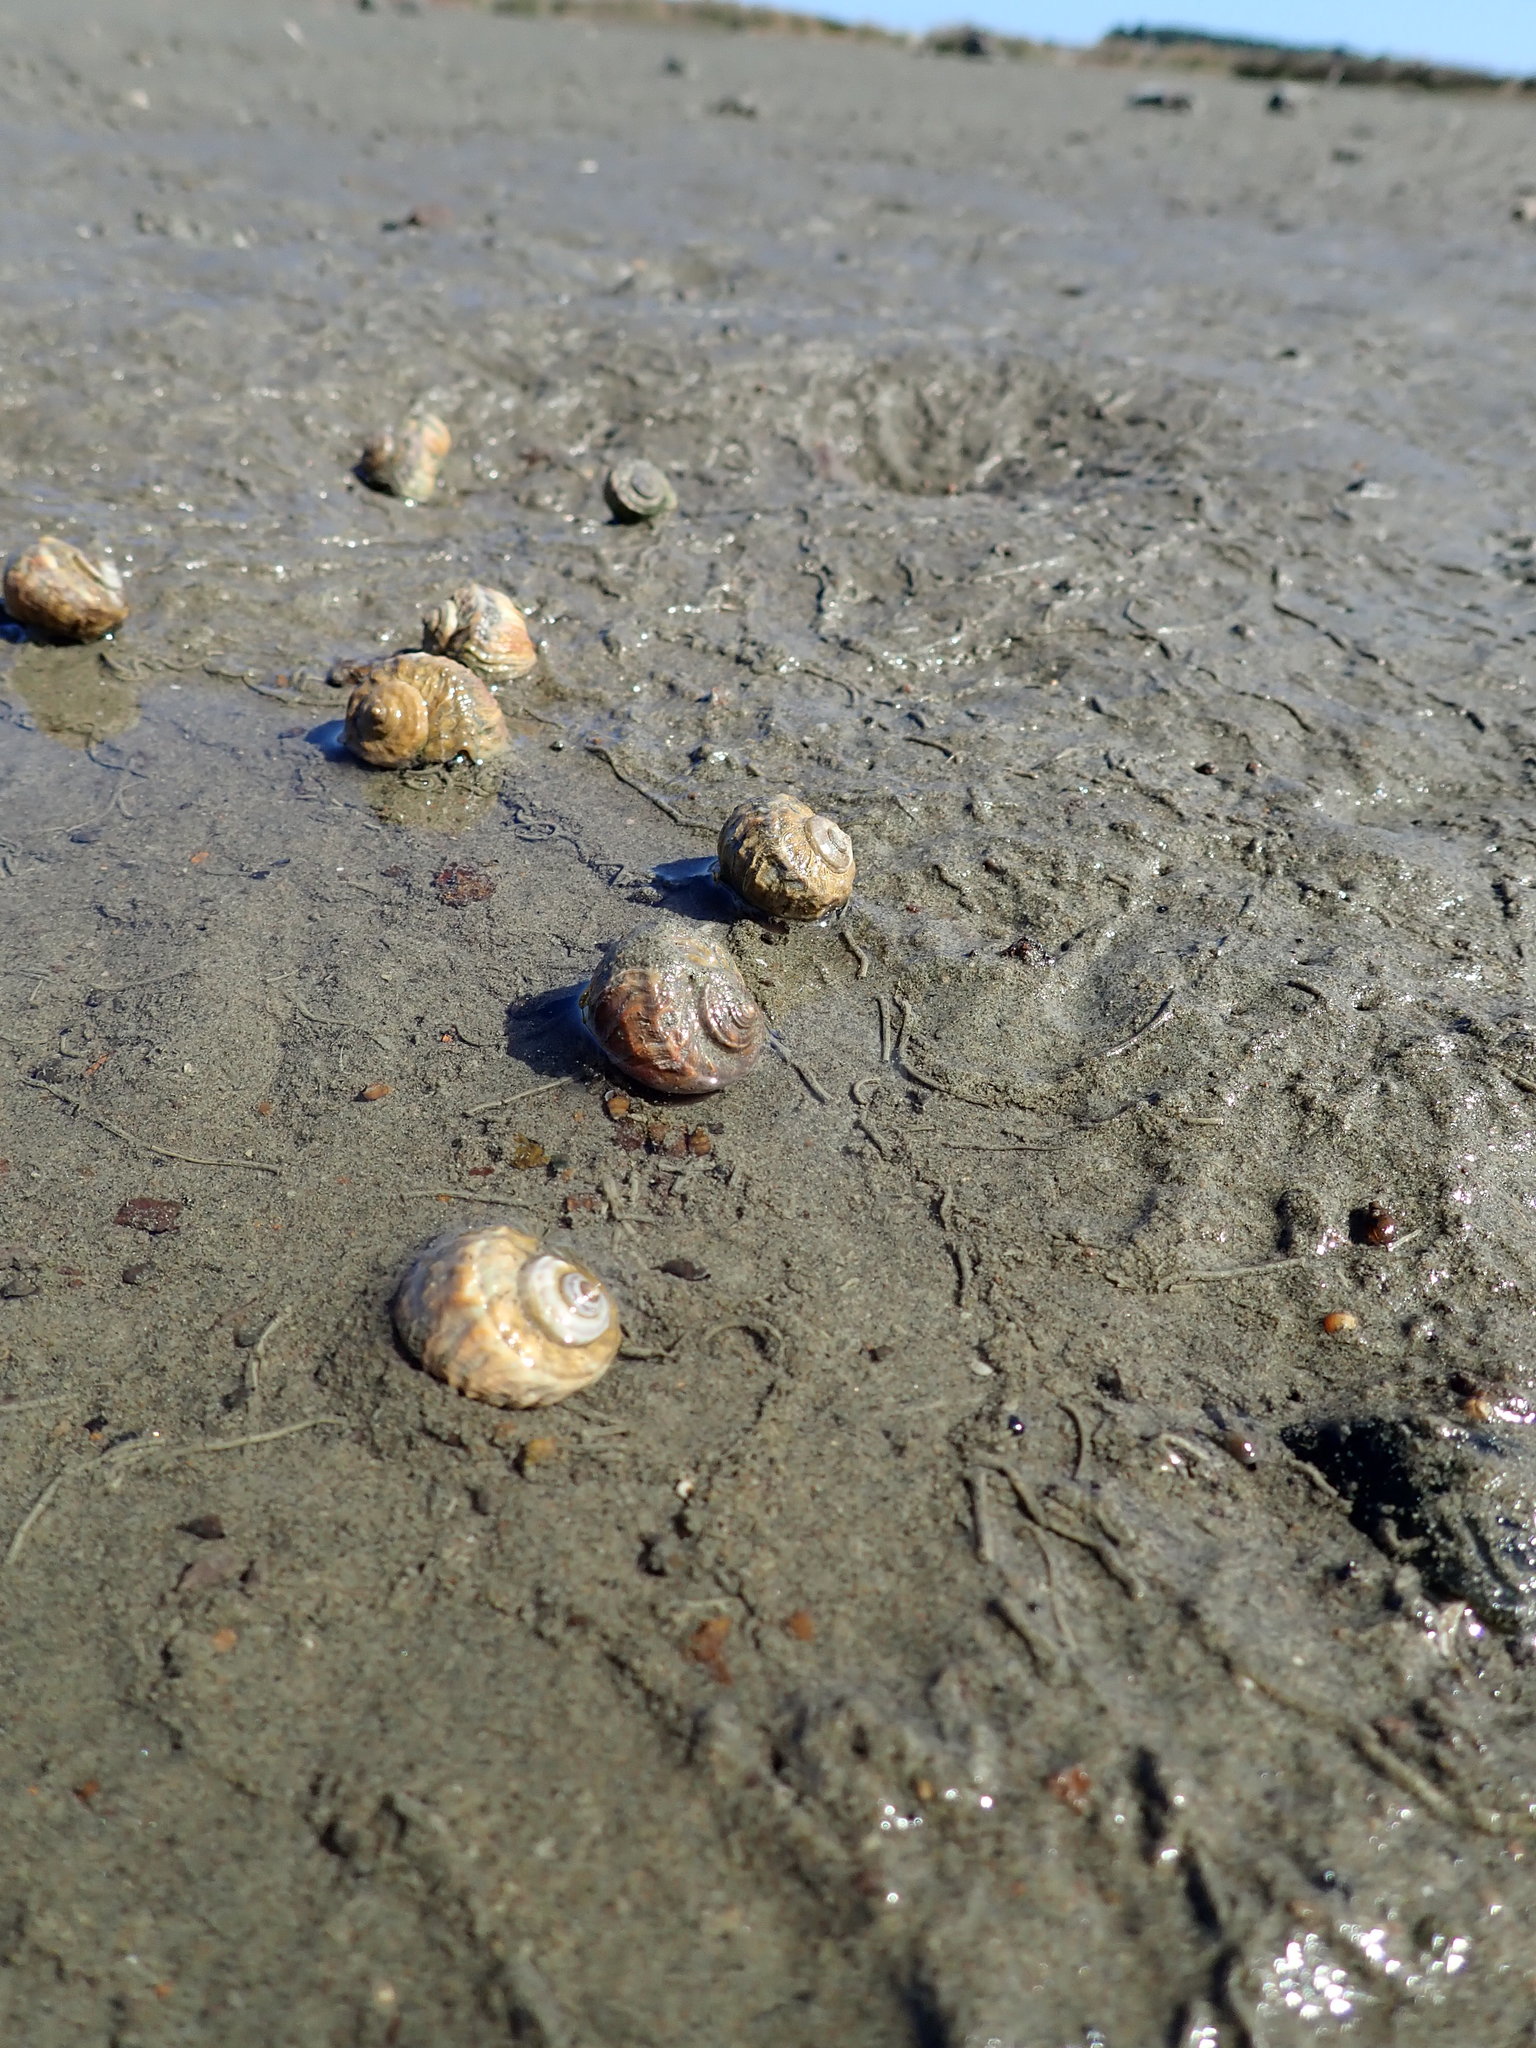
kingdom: Animalia
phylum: Mollusca
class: Gastropoda
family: Amphibolidae
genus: Amphibola
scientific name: Amphibola crenata
